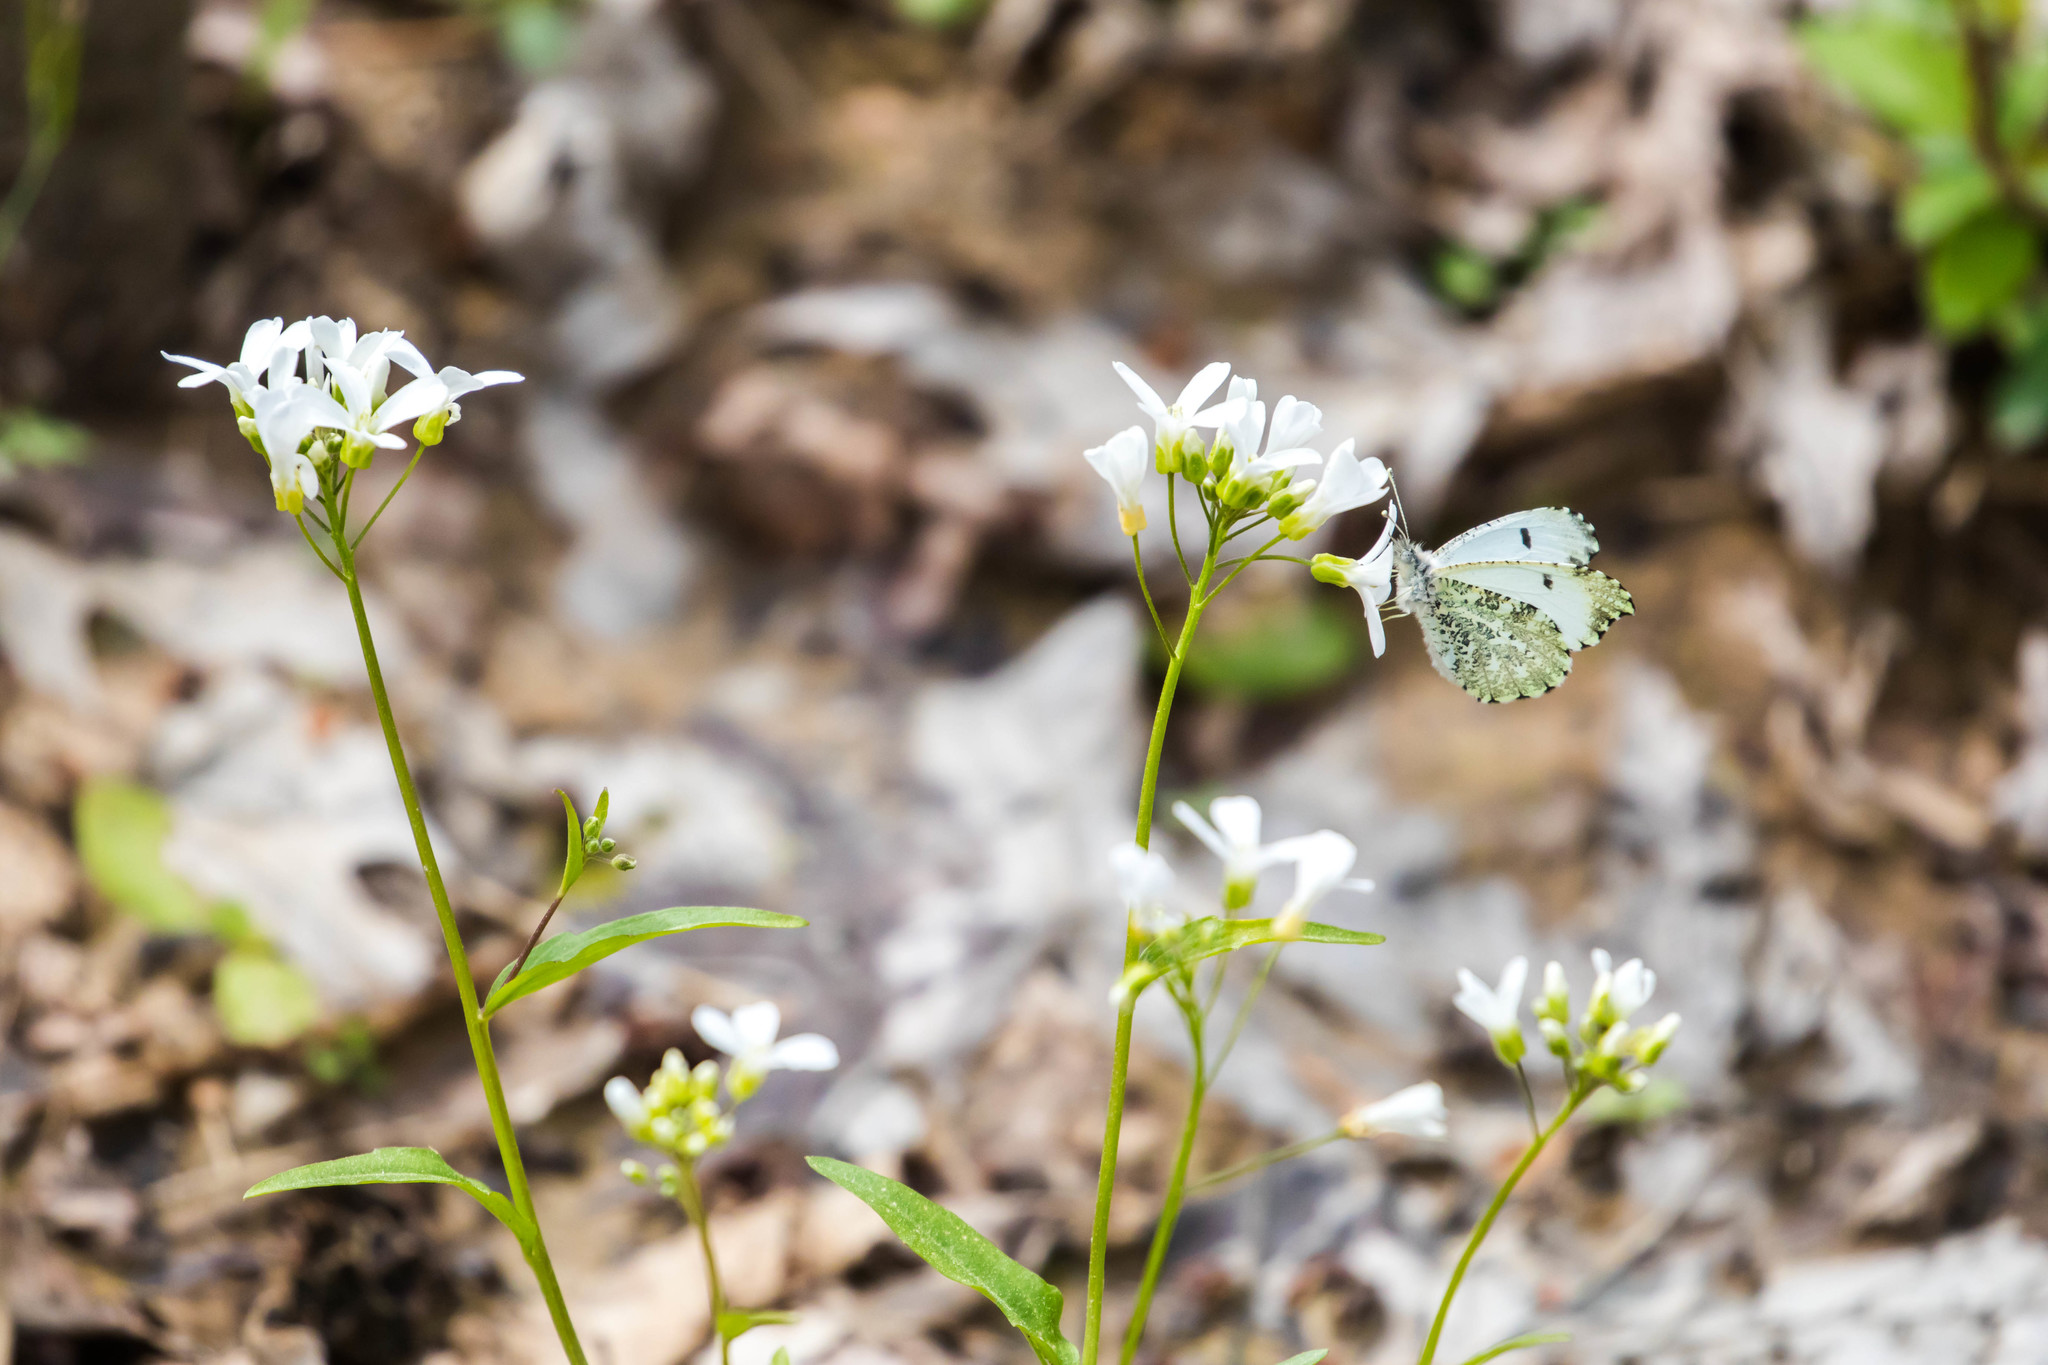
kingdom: Animalia
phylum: Arthropoda
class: Insecta
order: Lepidoptera
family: Pieridae
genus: Anthocharis
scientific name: Anthocharis midea
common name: Falcate orangetip
